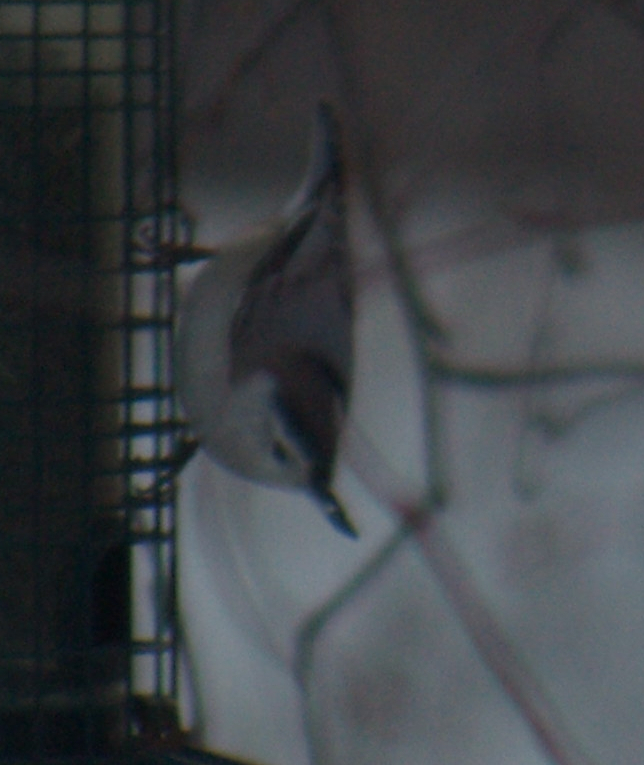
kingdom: Animalia
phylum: Chordata
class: Aves
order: Passeriformes
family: Sittidae
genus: Sitta
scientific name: Sitta carolinensis
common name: White-breasted nuthatch
